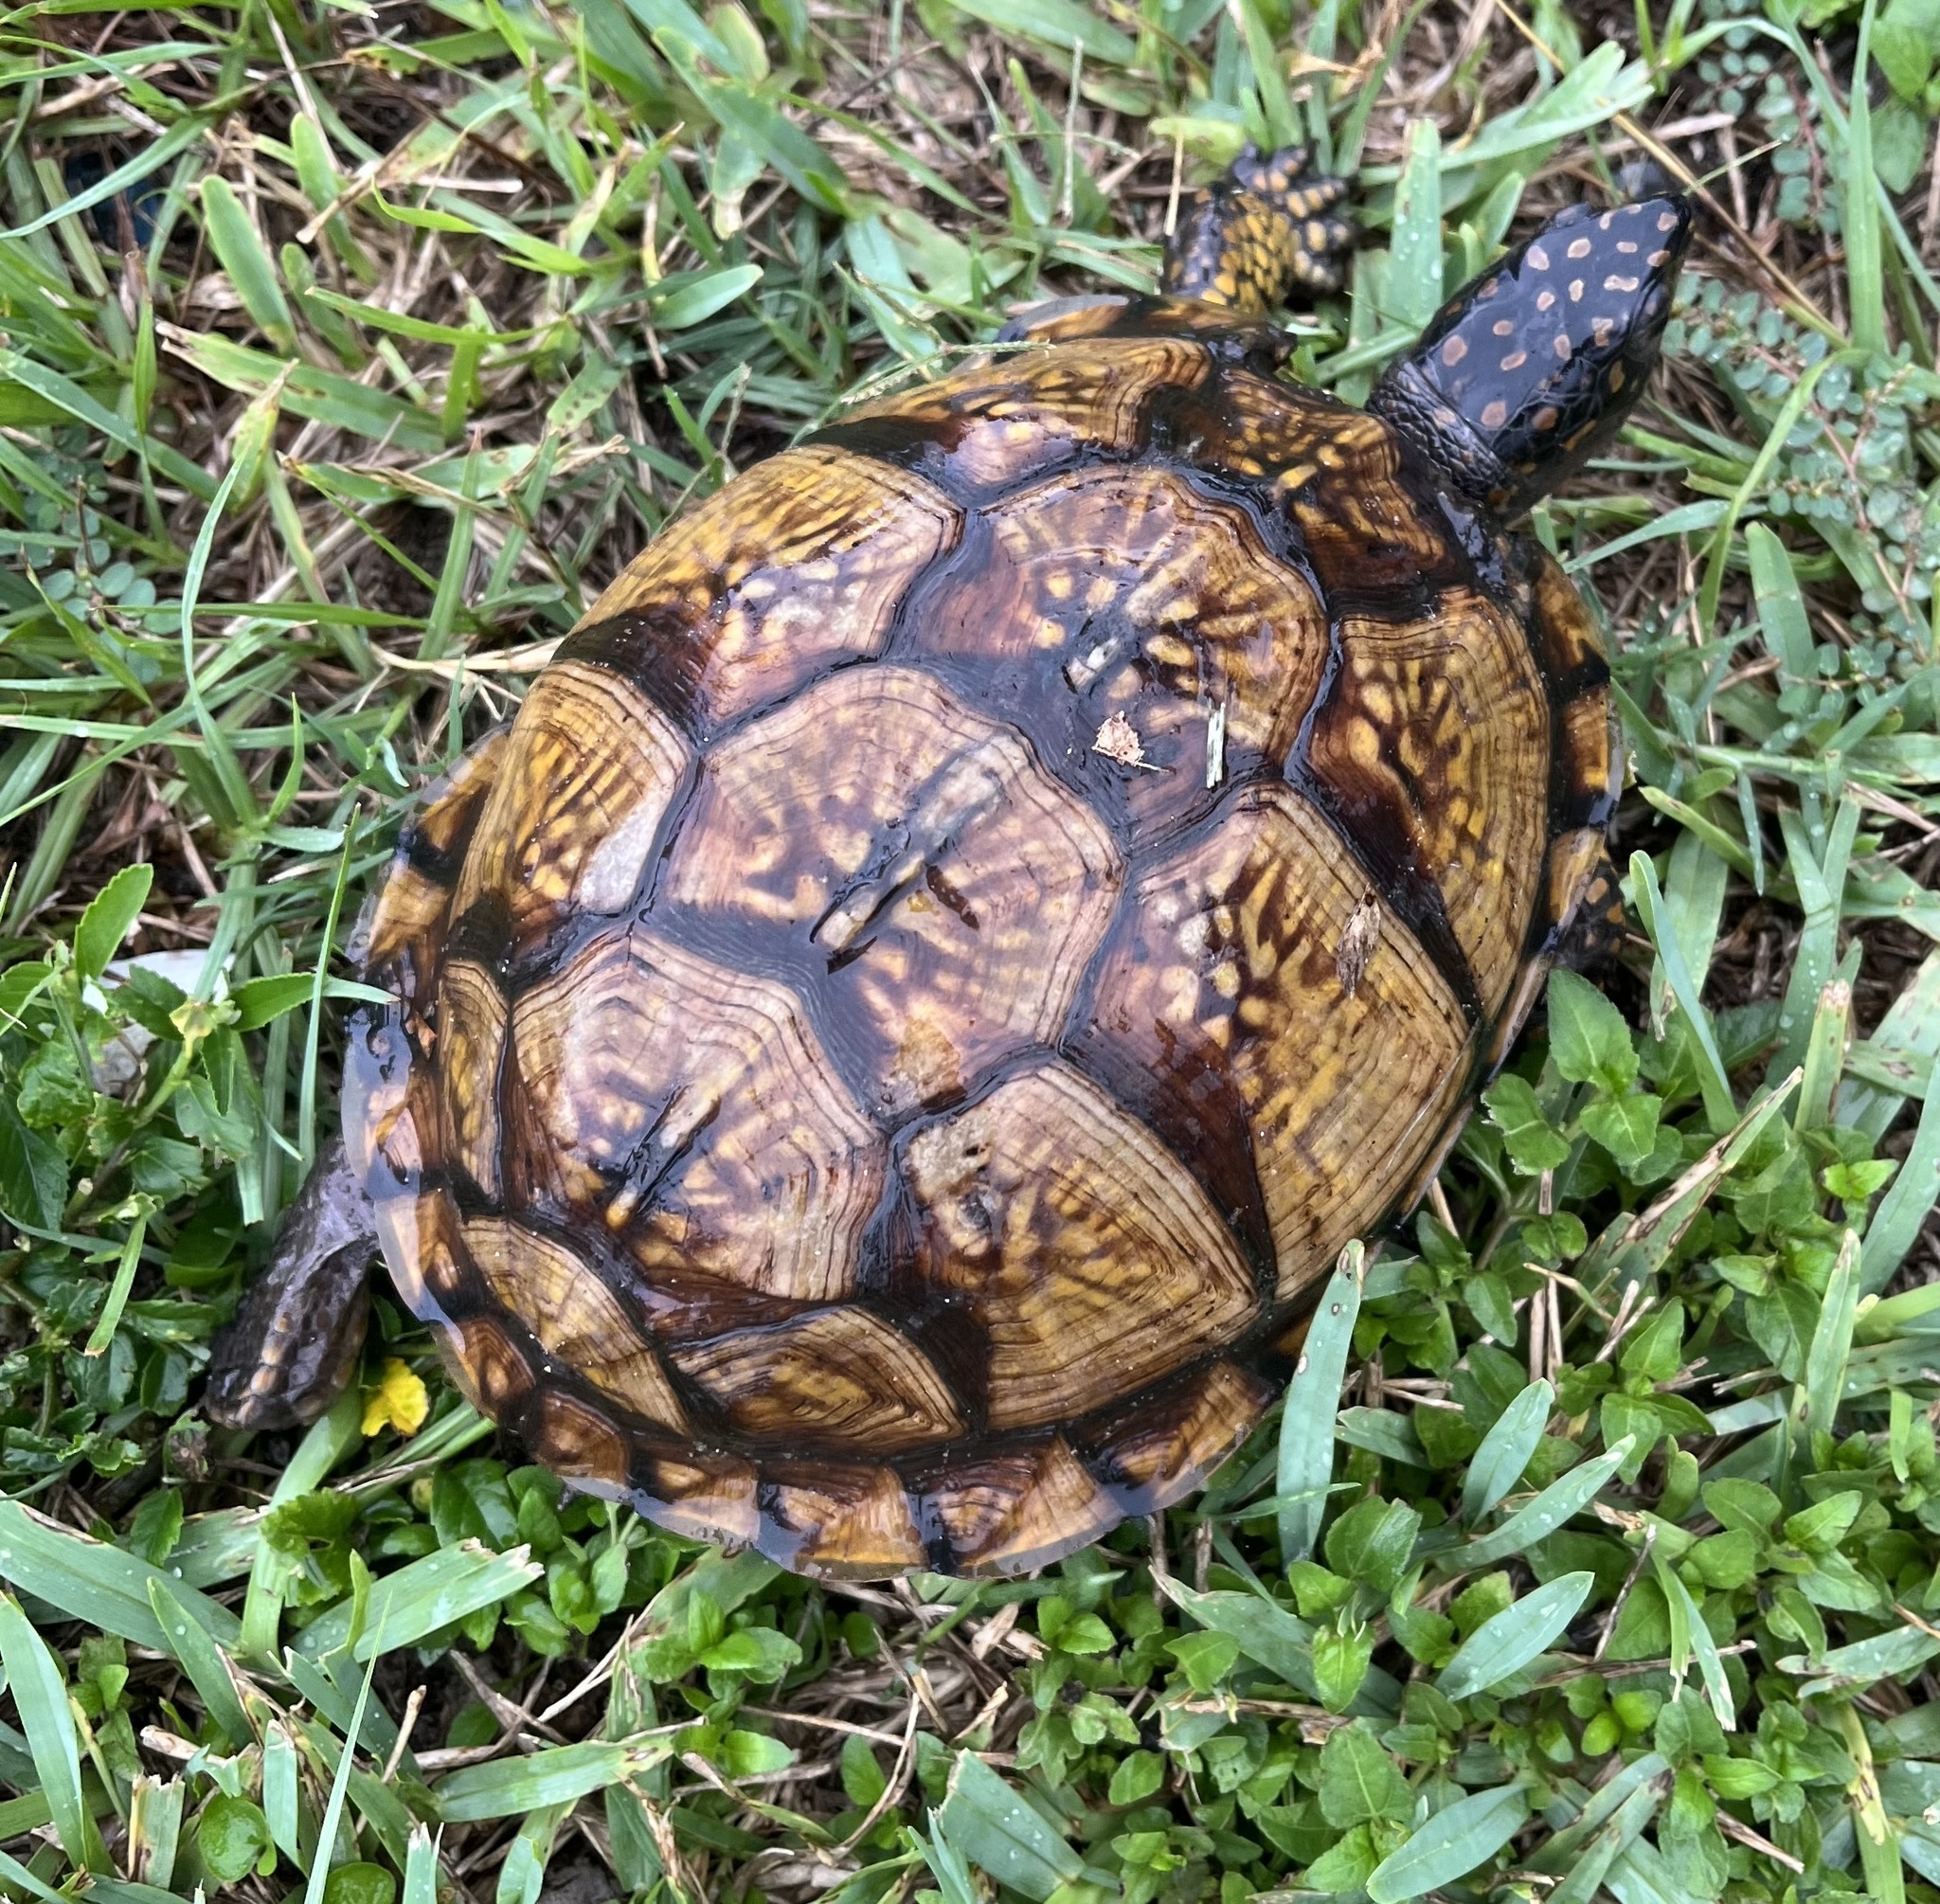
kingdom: Animalia
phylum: Chordata
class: Testudines
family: Emydidae
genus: Terrapene
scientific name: Terrapene carolina
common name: Common box turtle
